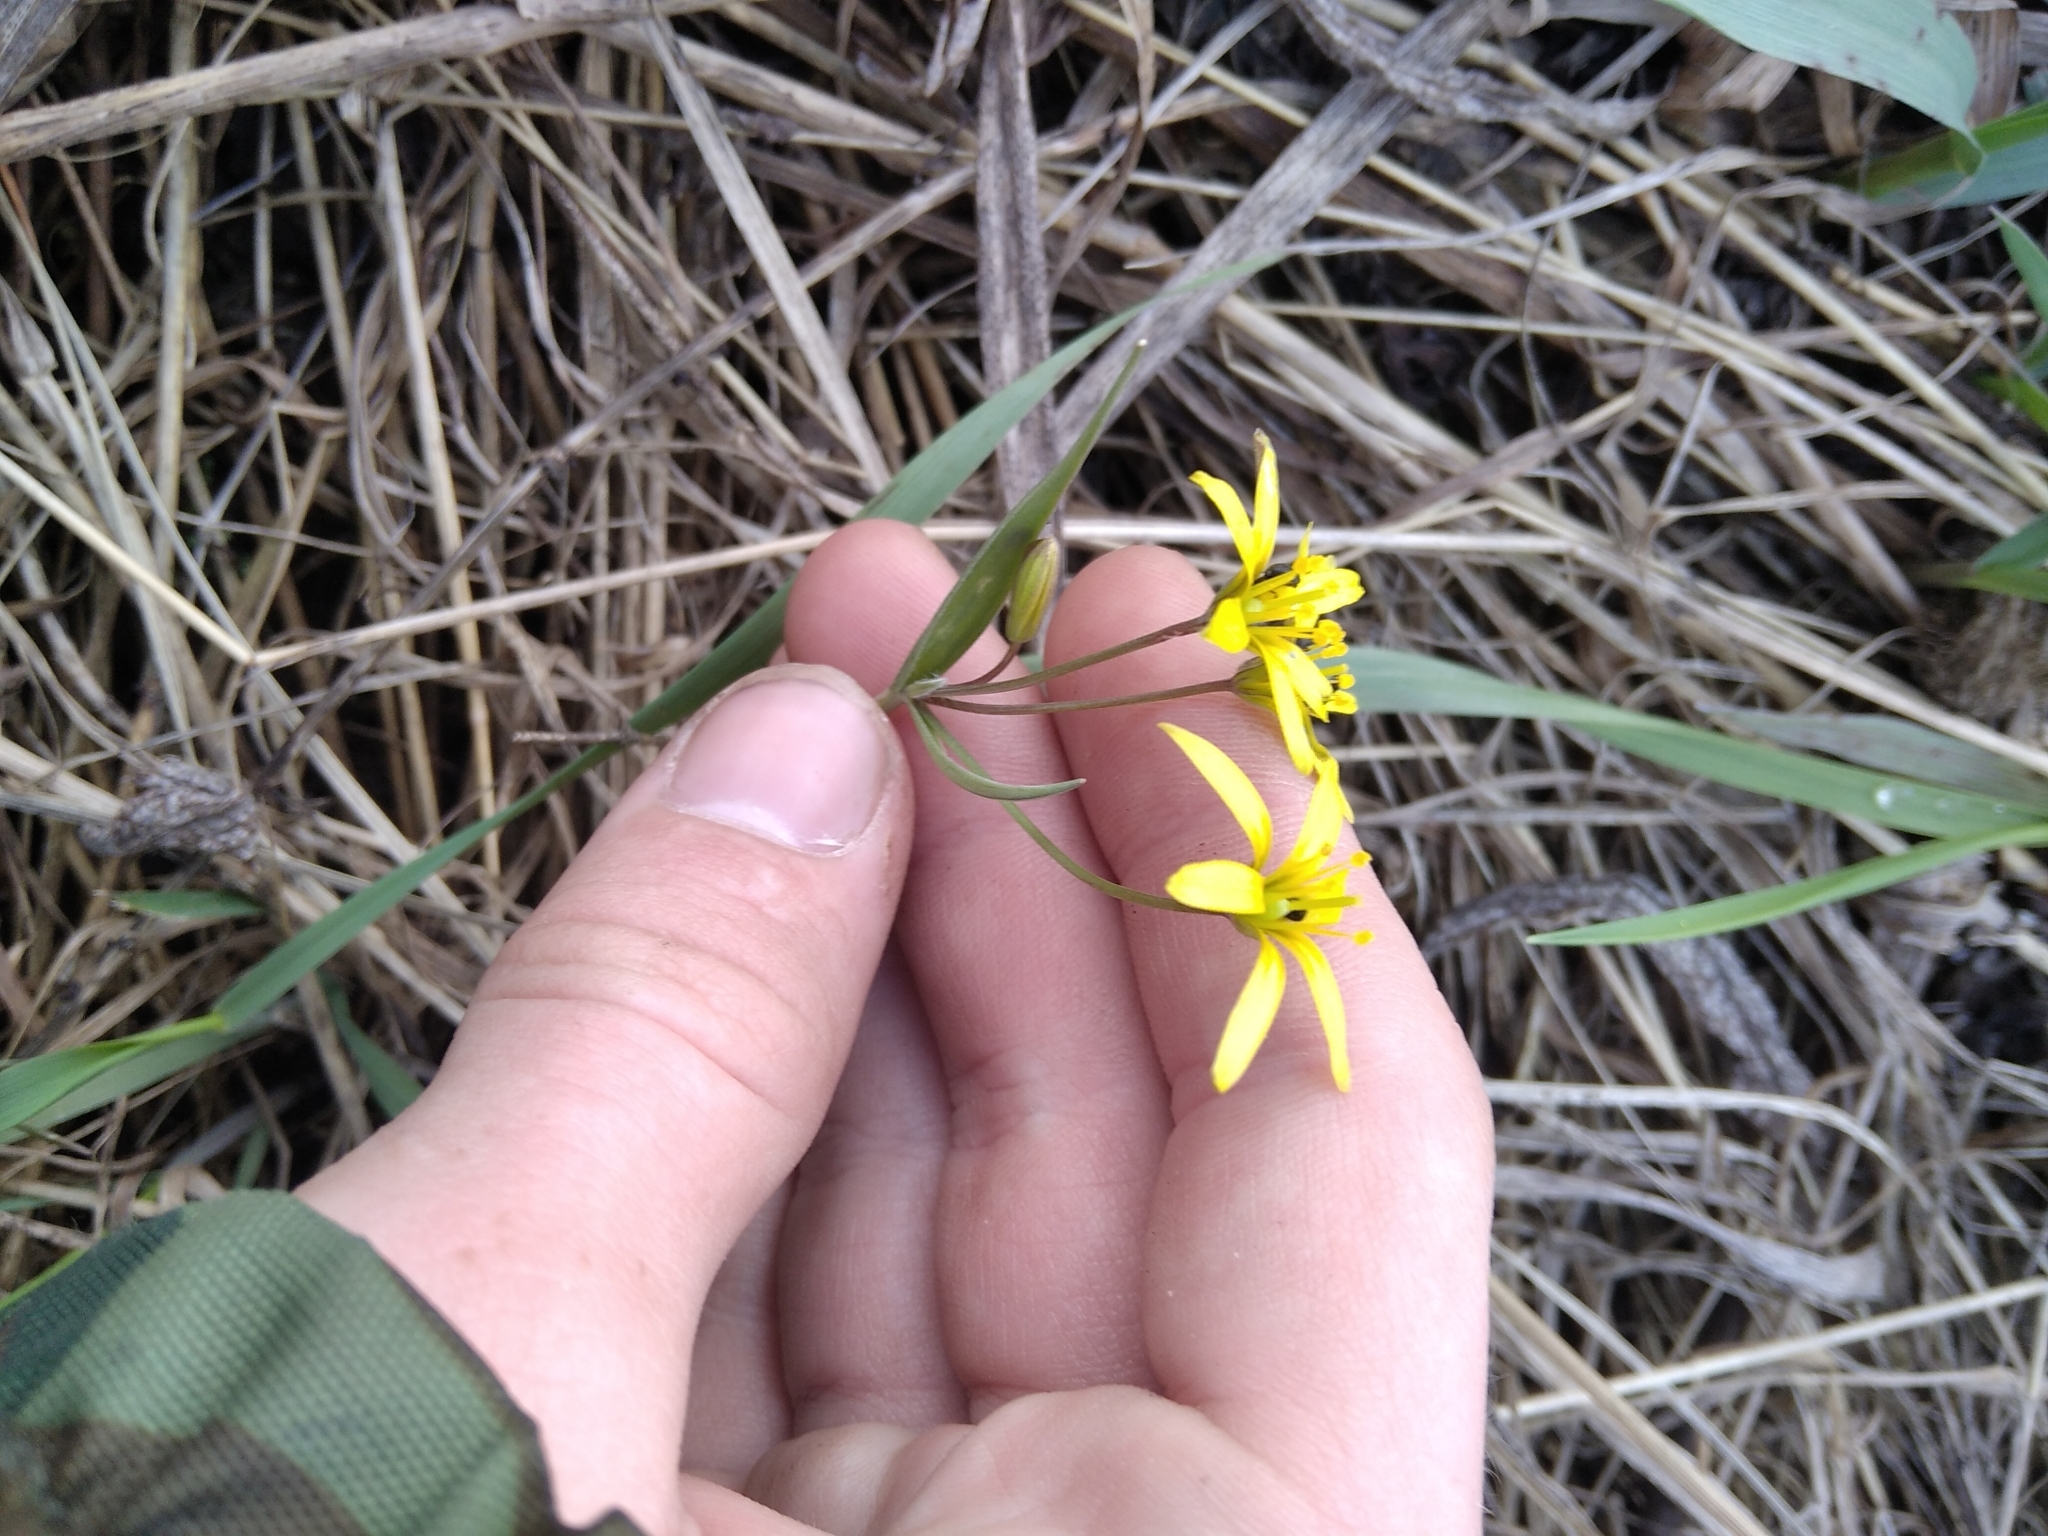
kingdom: Plantae
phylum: Tracheophyta
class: Liliopsida
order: Liliales
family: Liliaceae
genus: Gagea
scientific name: Gagea fragifera
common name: Lily
